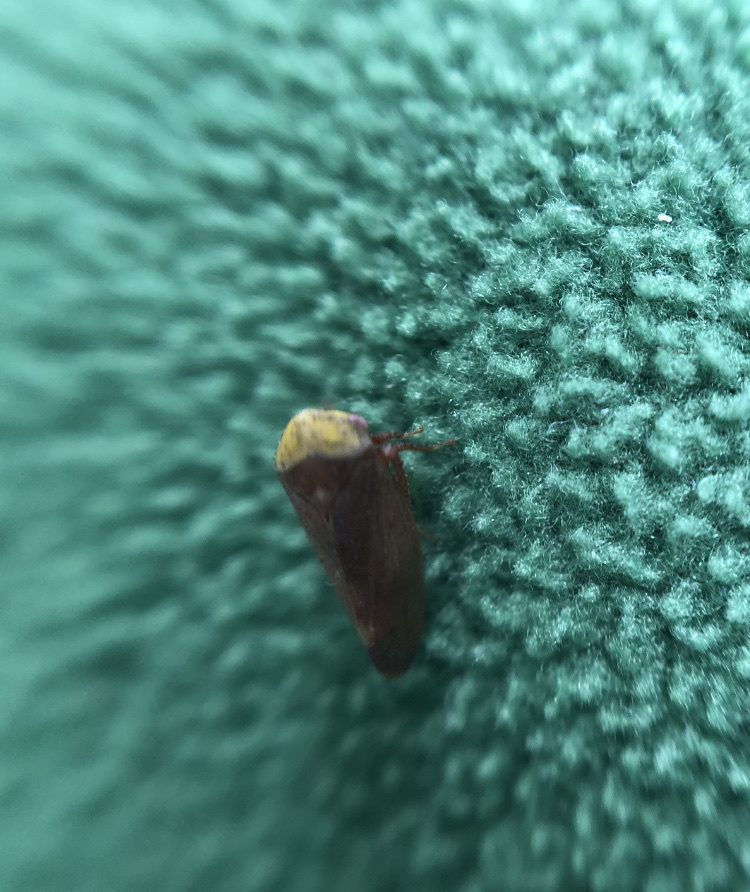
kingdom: Animalia
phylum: Arthropoda
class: Insecta
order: Hemiptera
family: Cicadellidae
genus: Pediopsis
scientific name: Pediopsis tiliae
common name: Leafhopper
